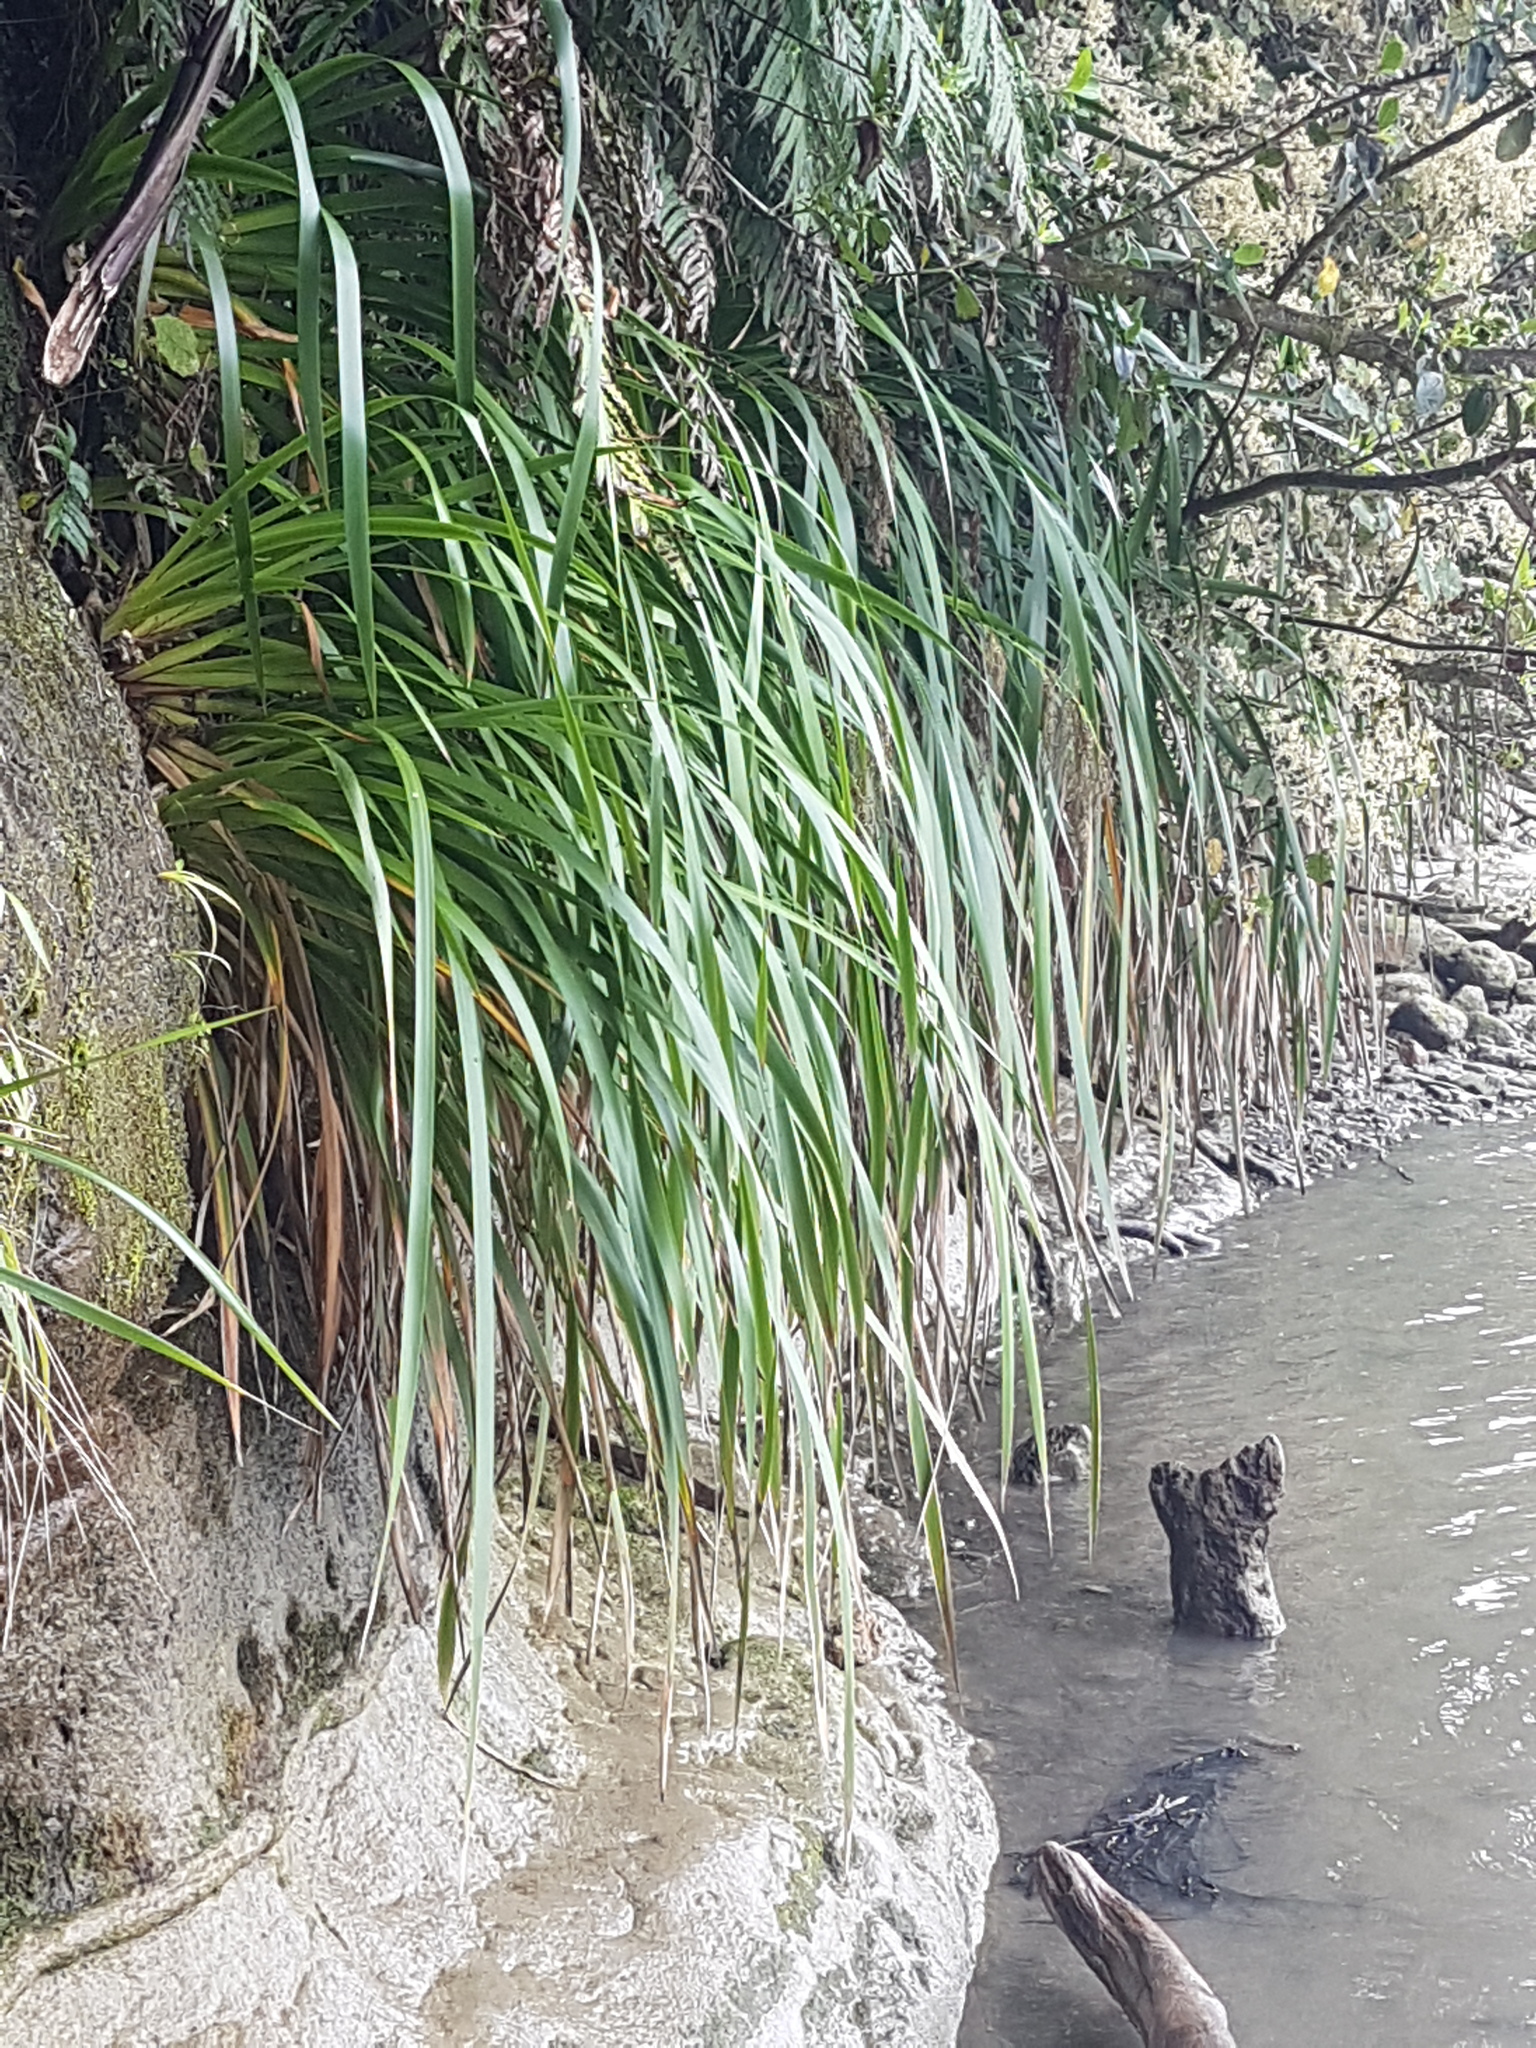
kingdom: Plantae
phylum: Tracheophyta
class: Liliopsida
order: Poales
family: Cyperaceae
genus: Machaerina
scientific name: Machaerina sinclairii
